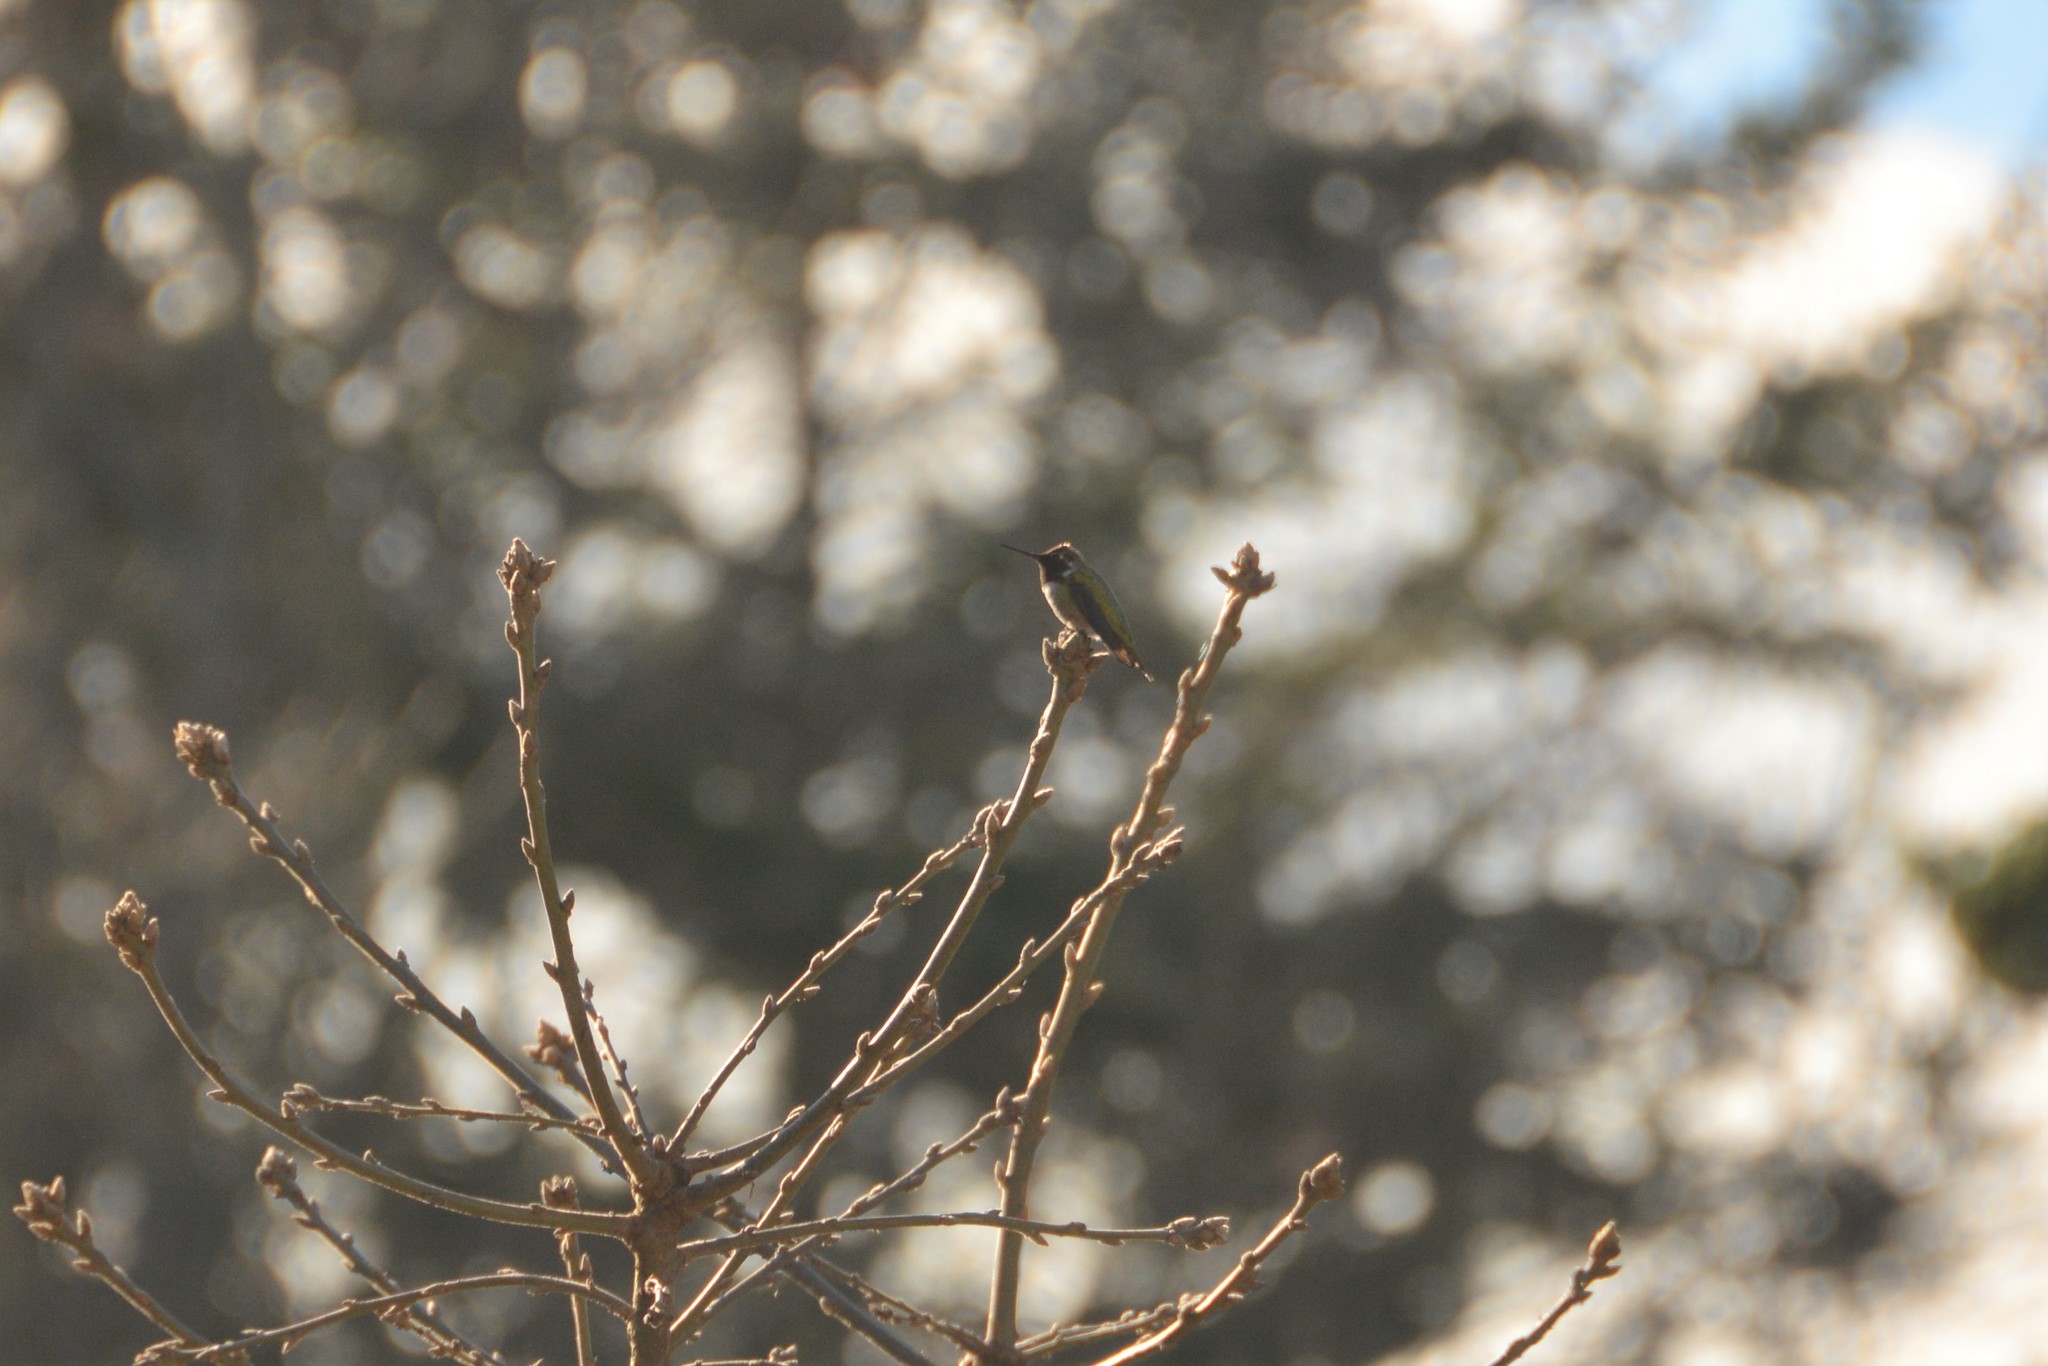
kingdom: Animalia
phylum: Chordata
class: Aves
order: Apodiformes
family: Trochilidae
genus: Calypte
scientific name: Calypte anna
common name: Anna's hummingbird
